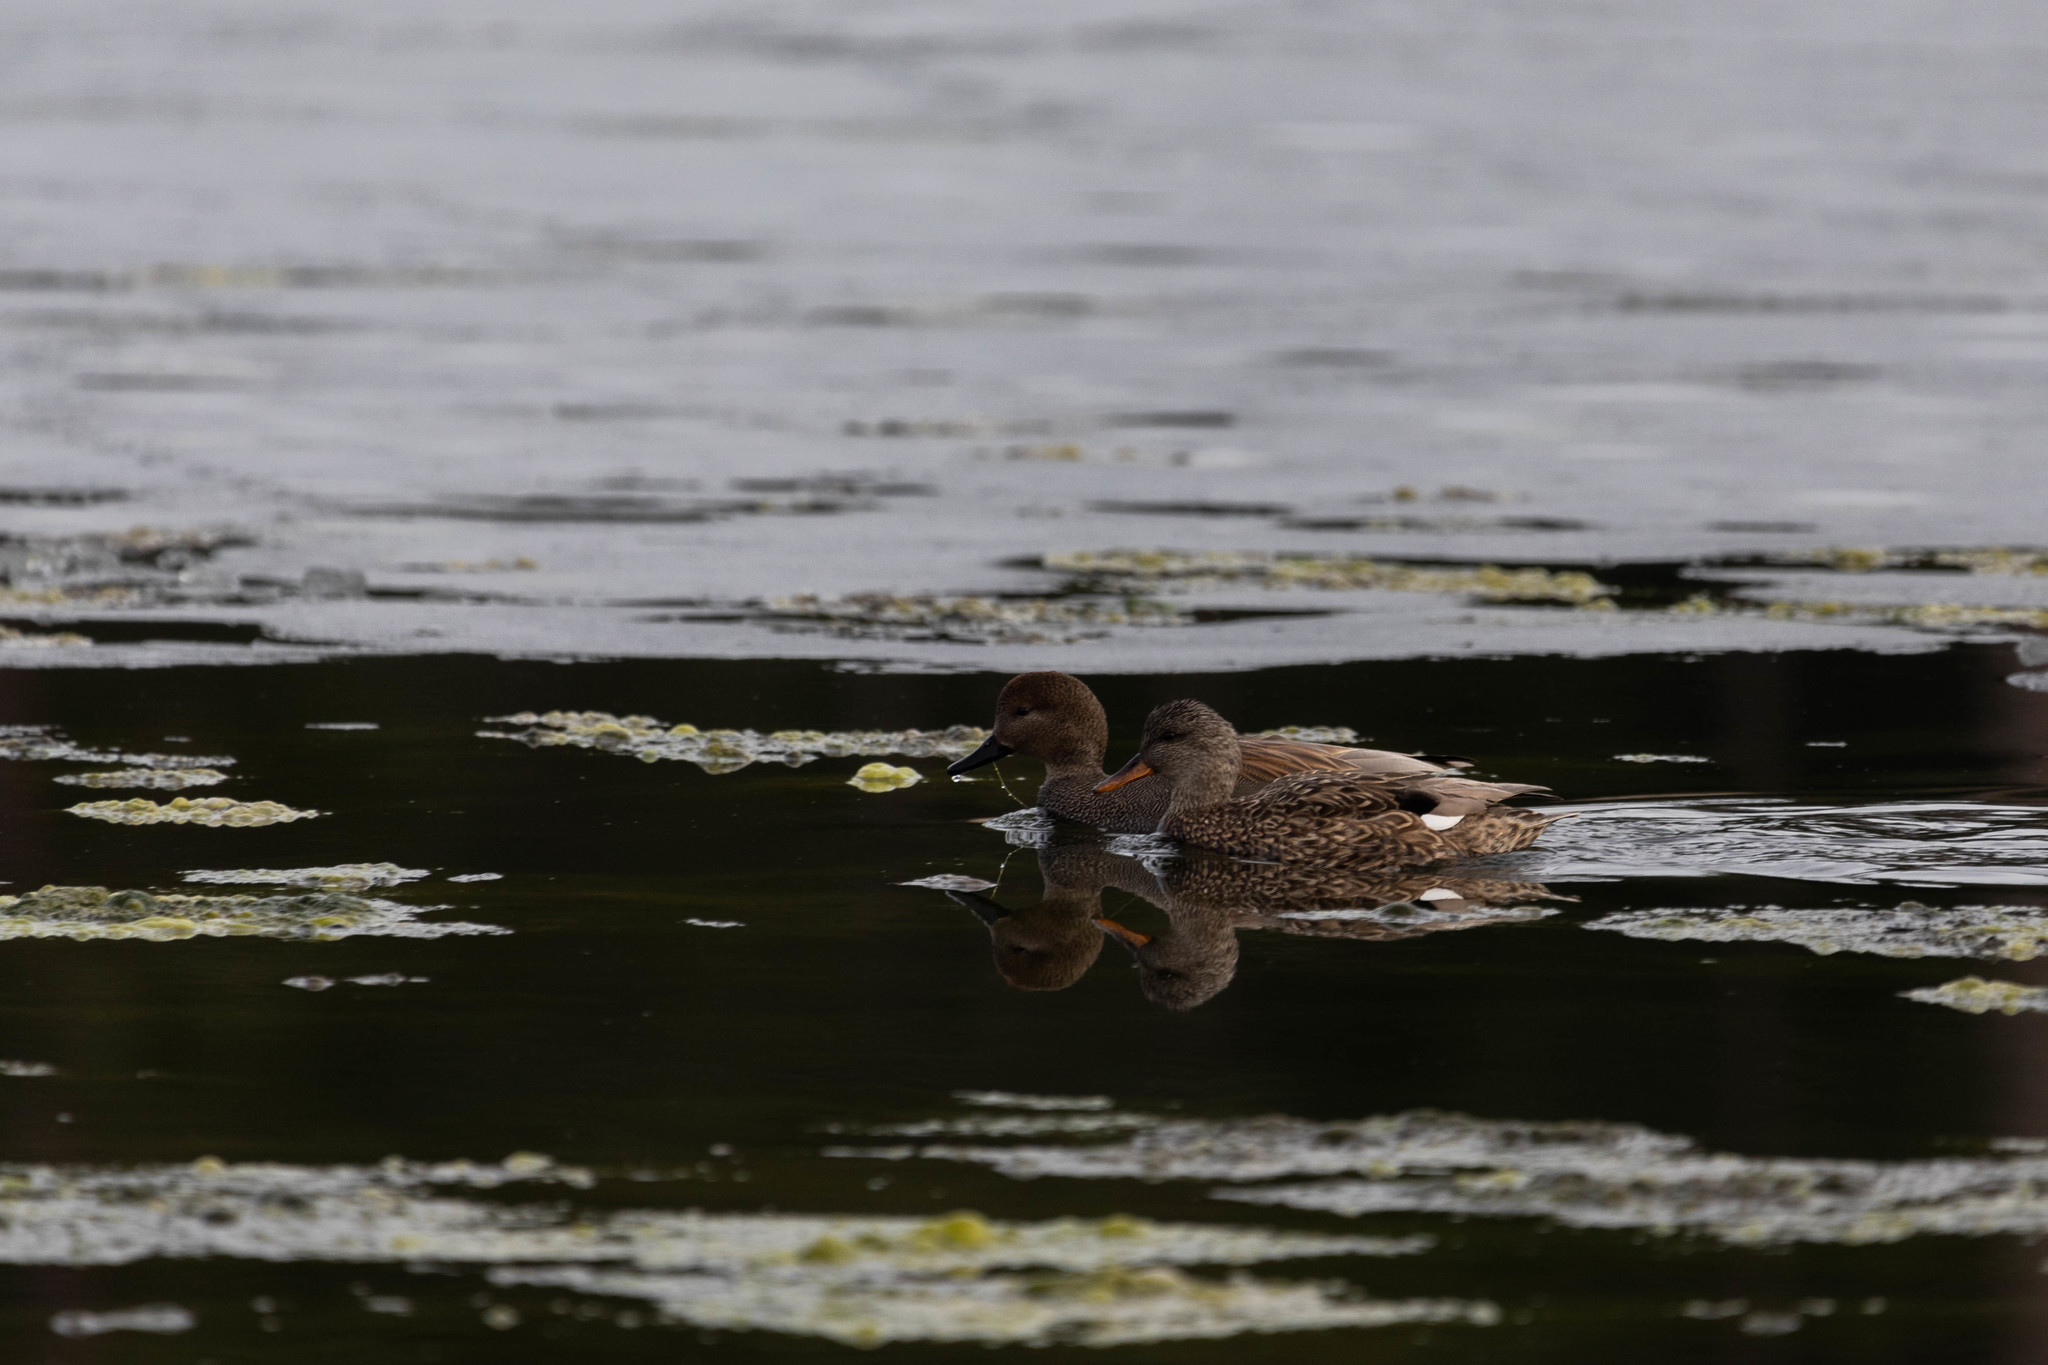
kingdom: Animalia
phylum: Chordata
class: Aves
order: Anseriformes
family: Anatidae
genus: Mareca
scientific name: Mareca strepera
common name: Gadwall
